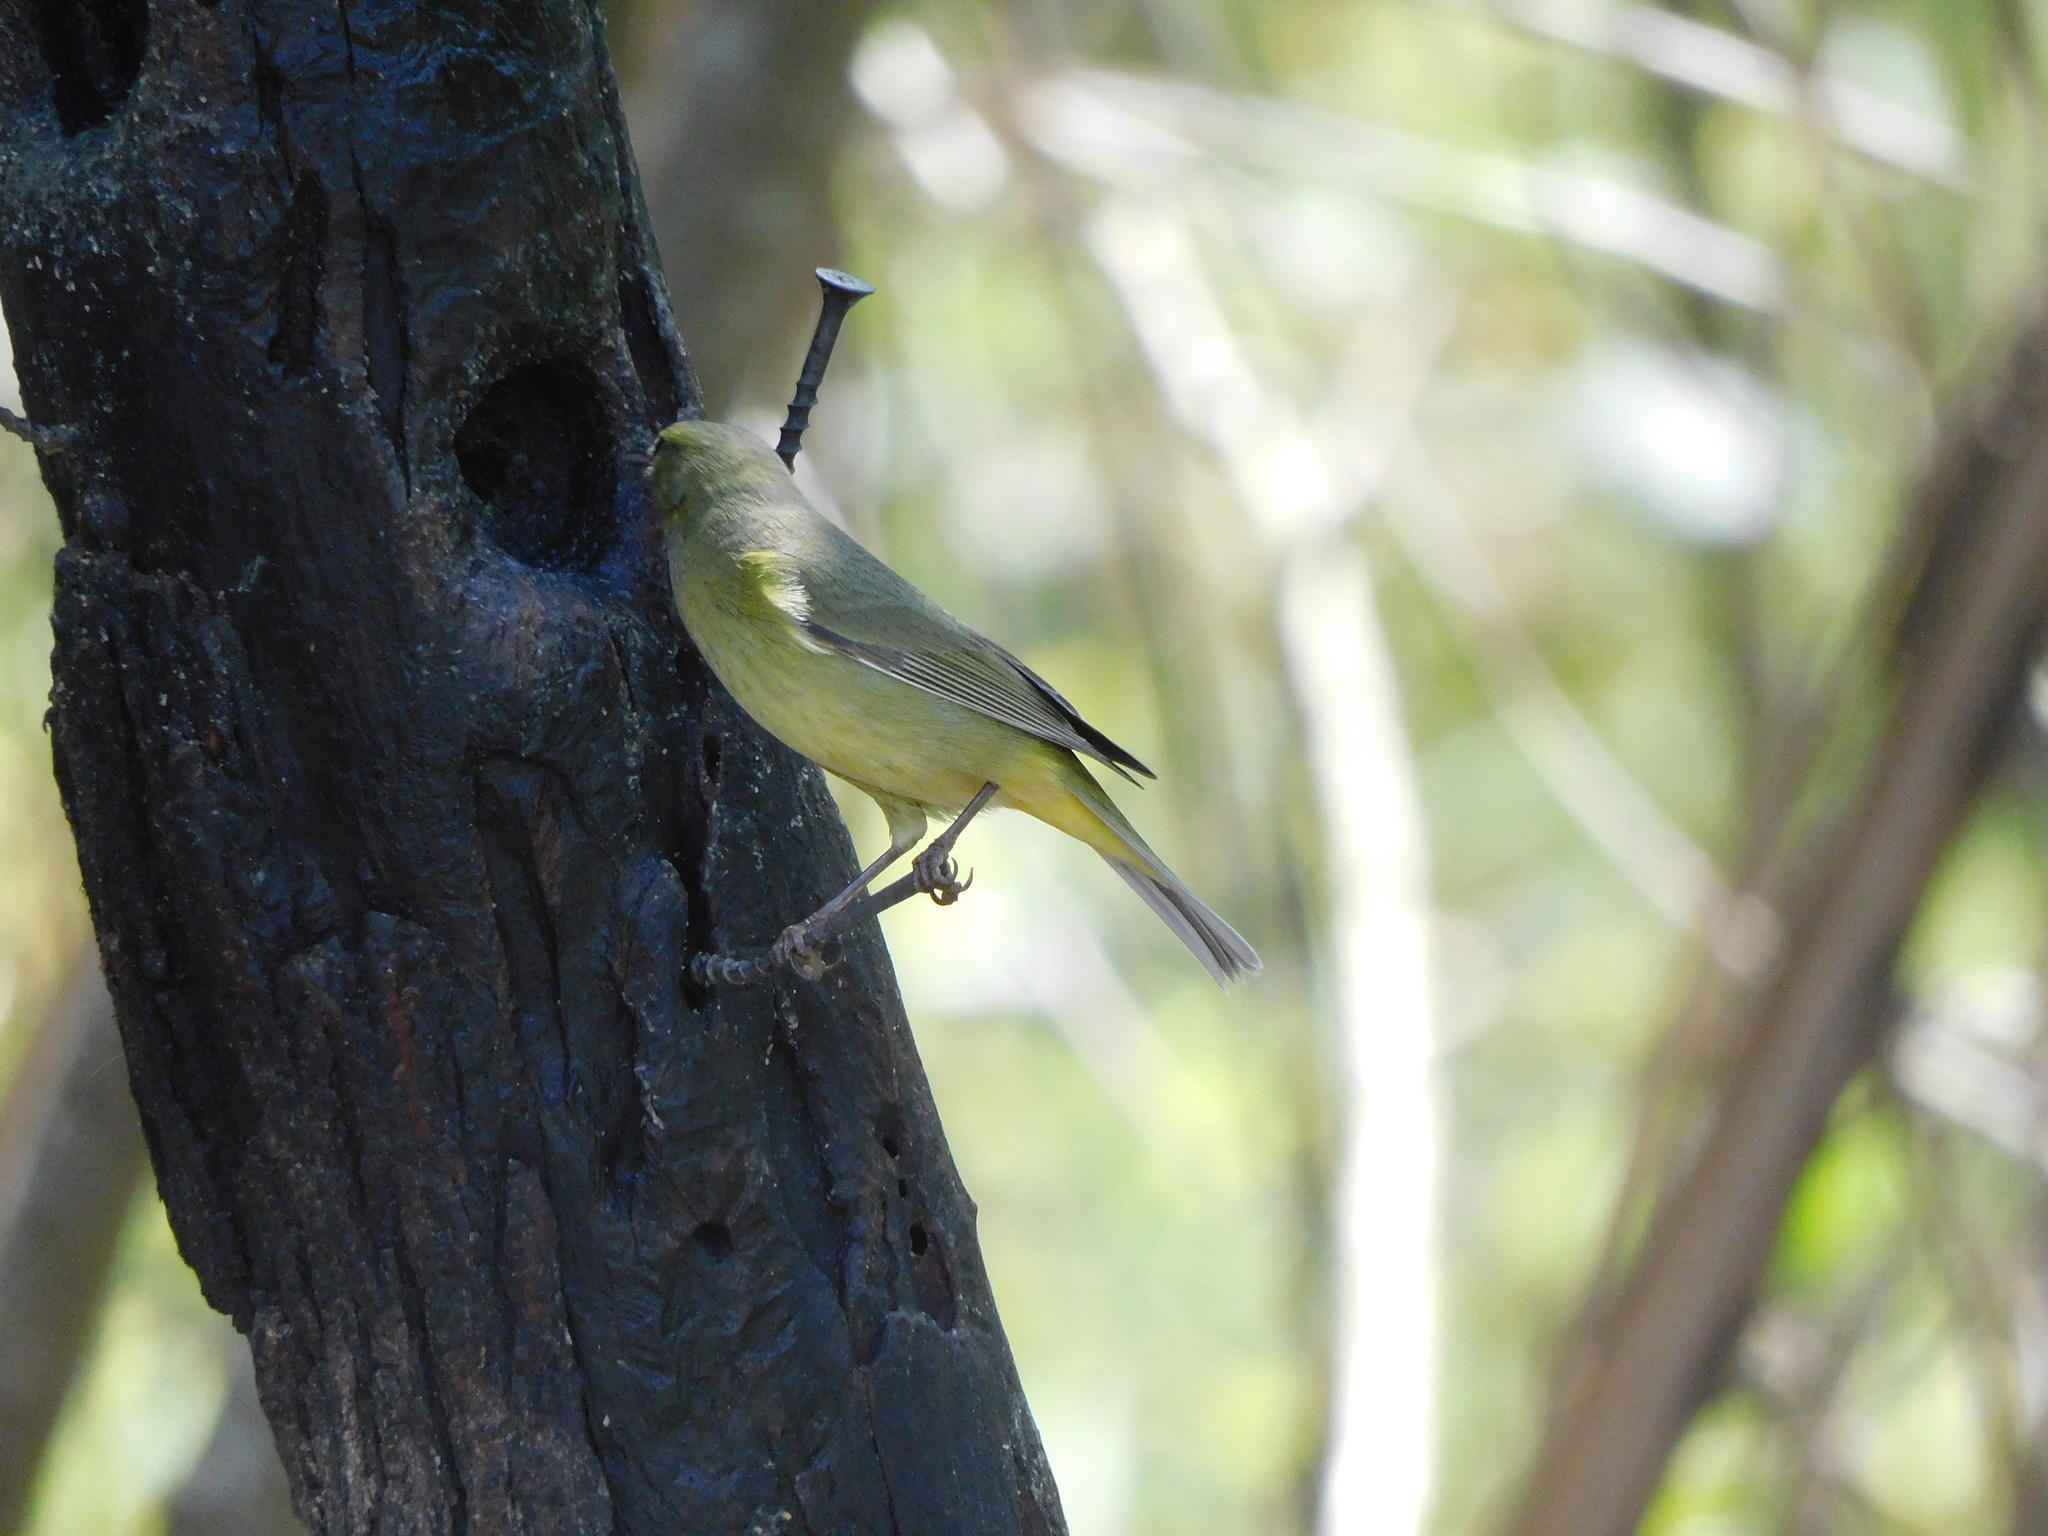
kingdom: Animalia
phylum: Chordata
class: Aves
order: Passeriformes
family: Parulidae
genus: Leiothlypis
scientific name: Leiothlypis celata
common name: Orange-crowned warbler
